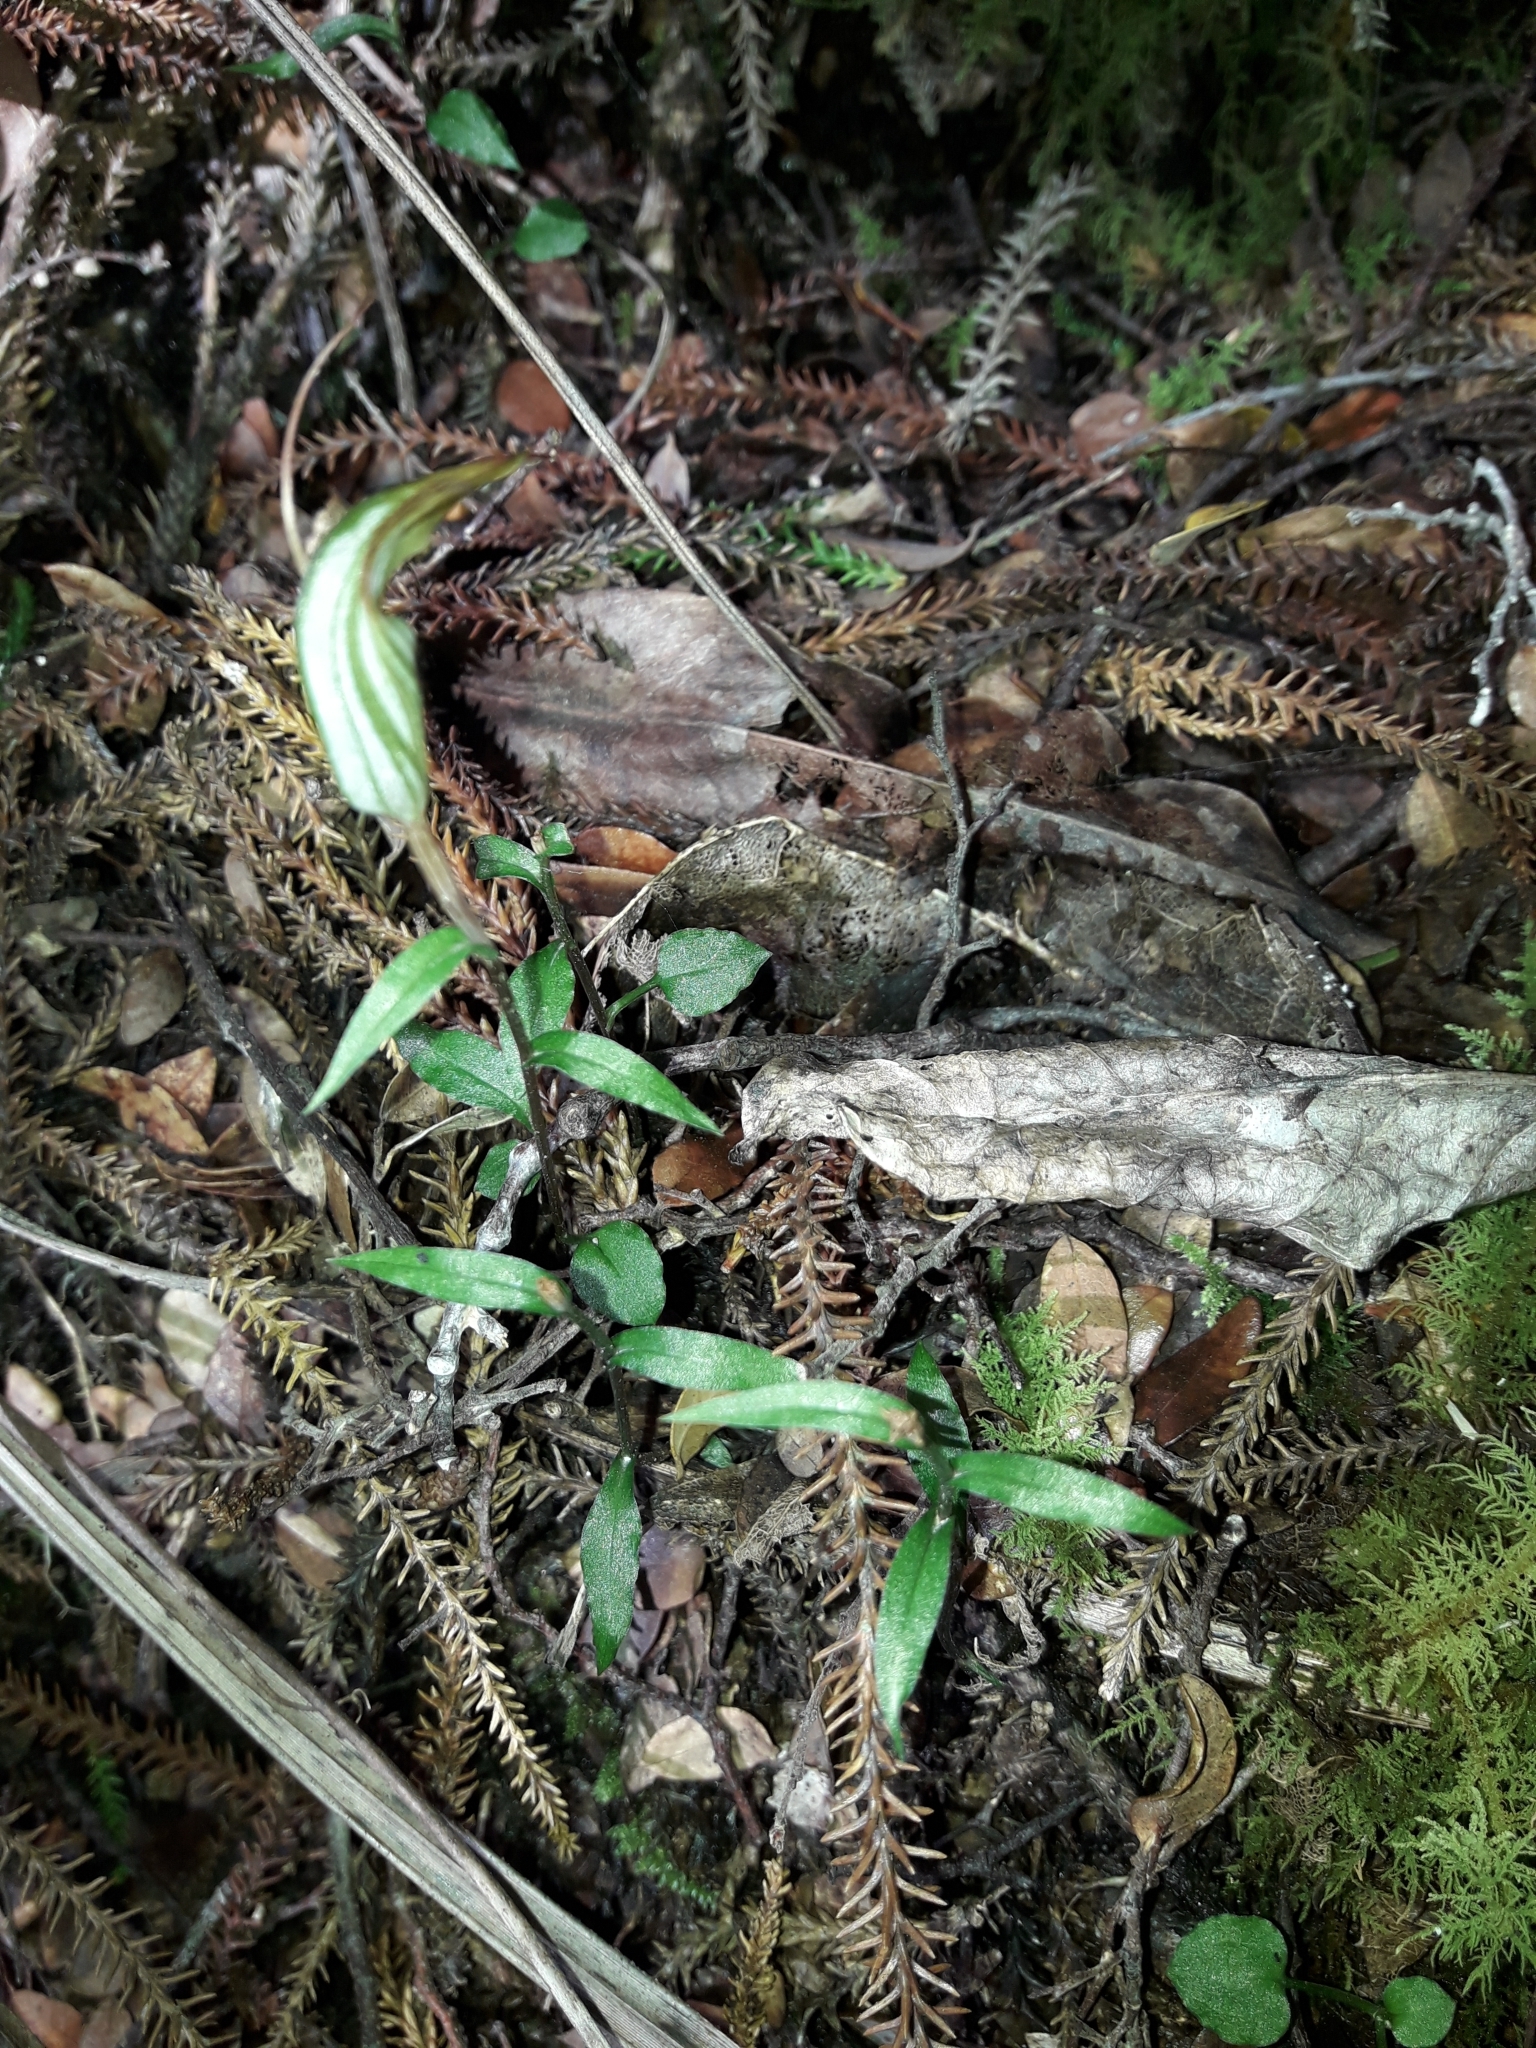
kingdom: Plantae
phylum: Tracheophyta
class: Liliopsida
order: Asparagales
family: Orchidaceae
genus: Pterostylis
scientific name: Pterostylis alobula
